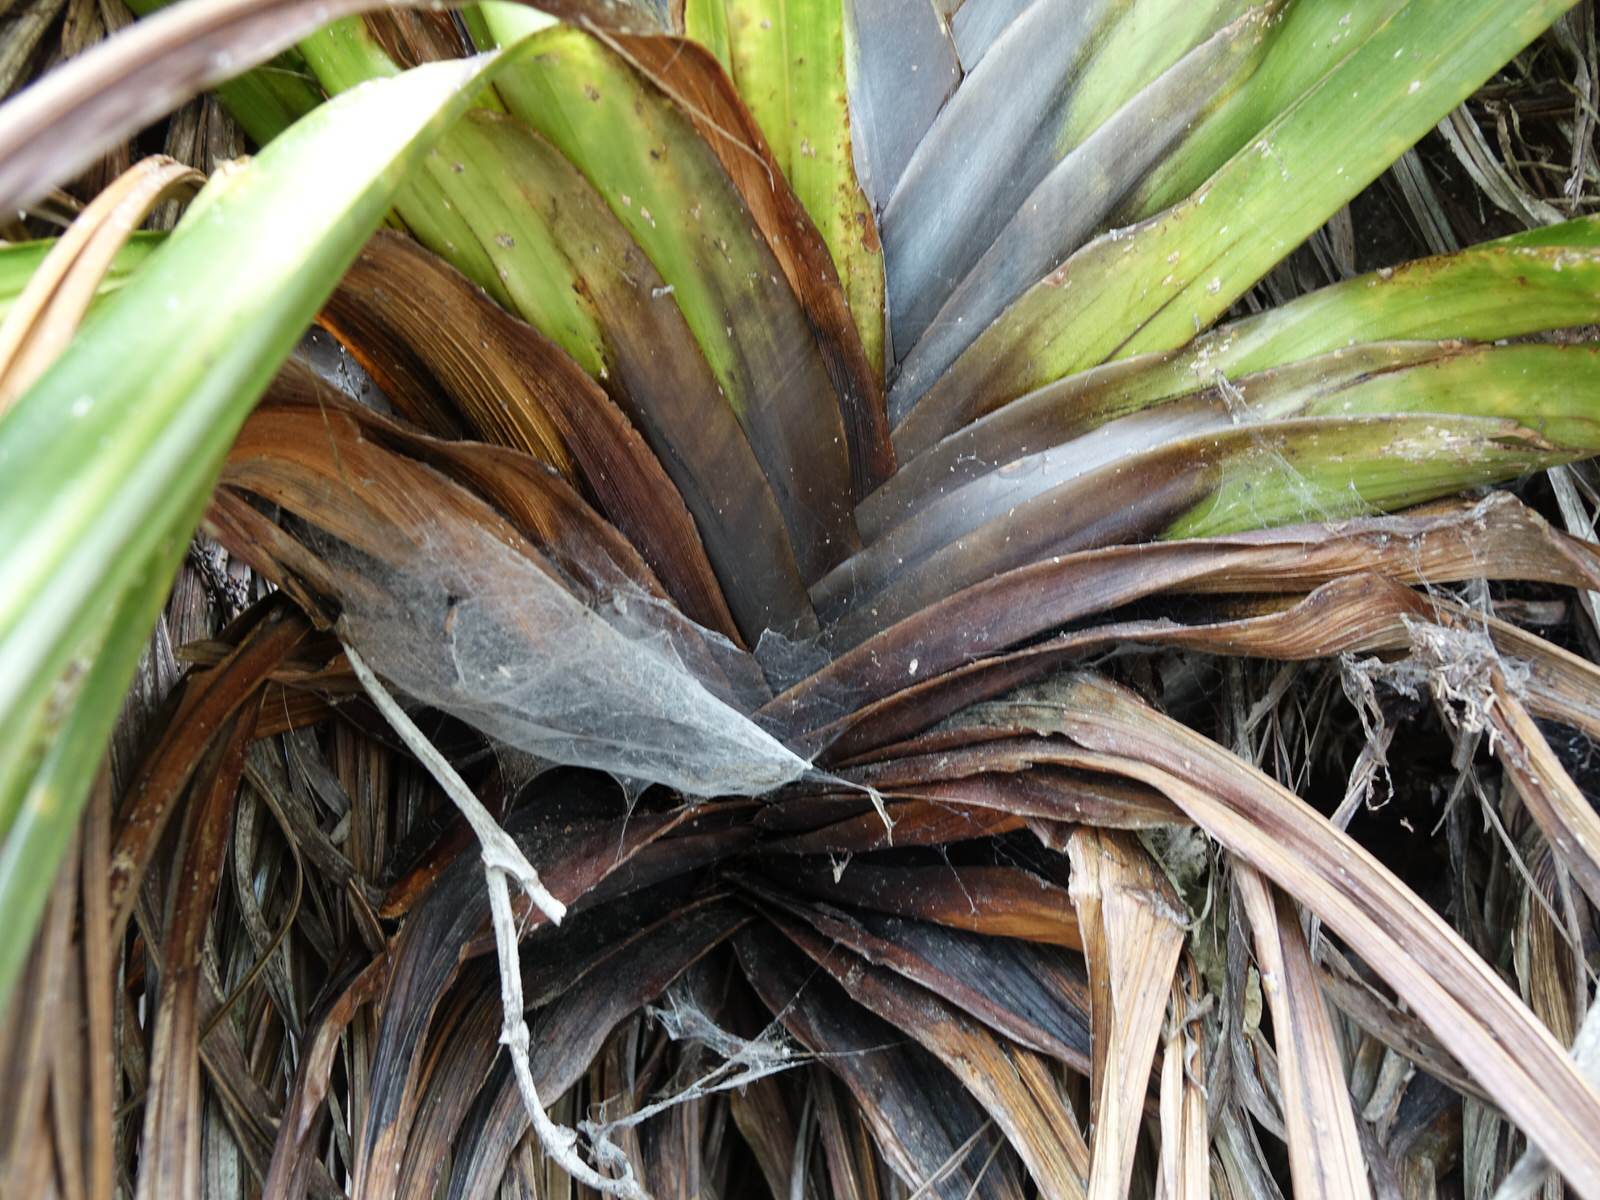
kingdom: Plantae
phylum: Tracheophyta
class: Liliopsida
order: Asparagales
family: Asteliaceae
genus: Astelia
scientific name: Astelia hastata
